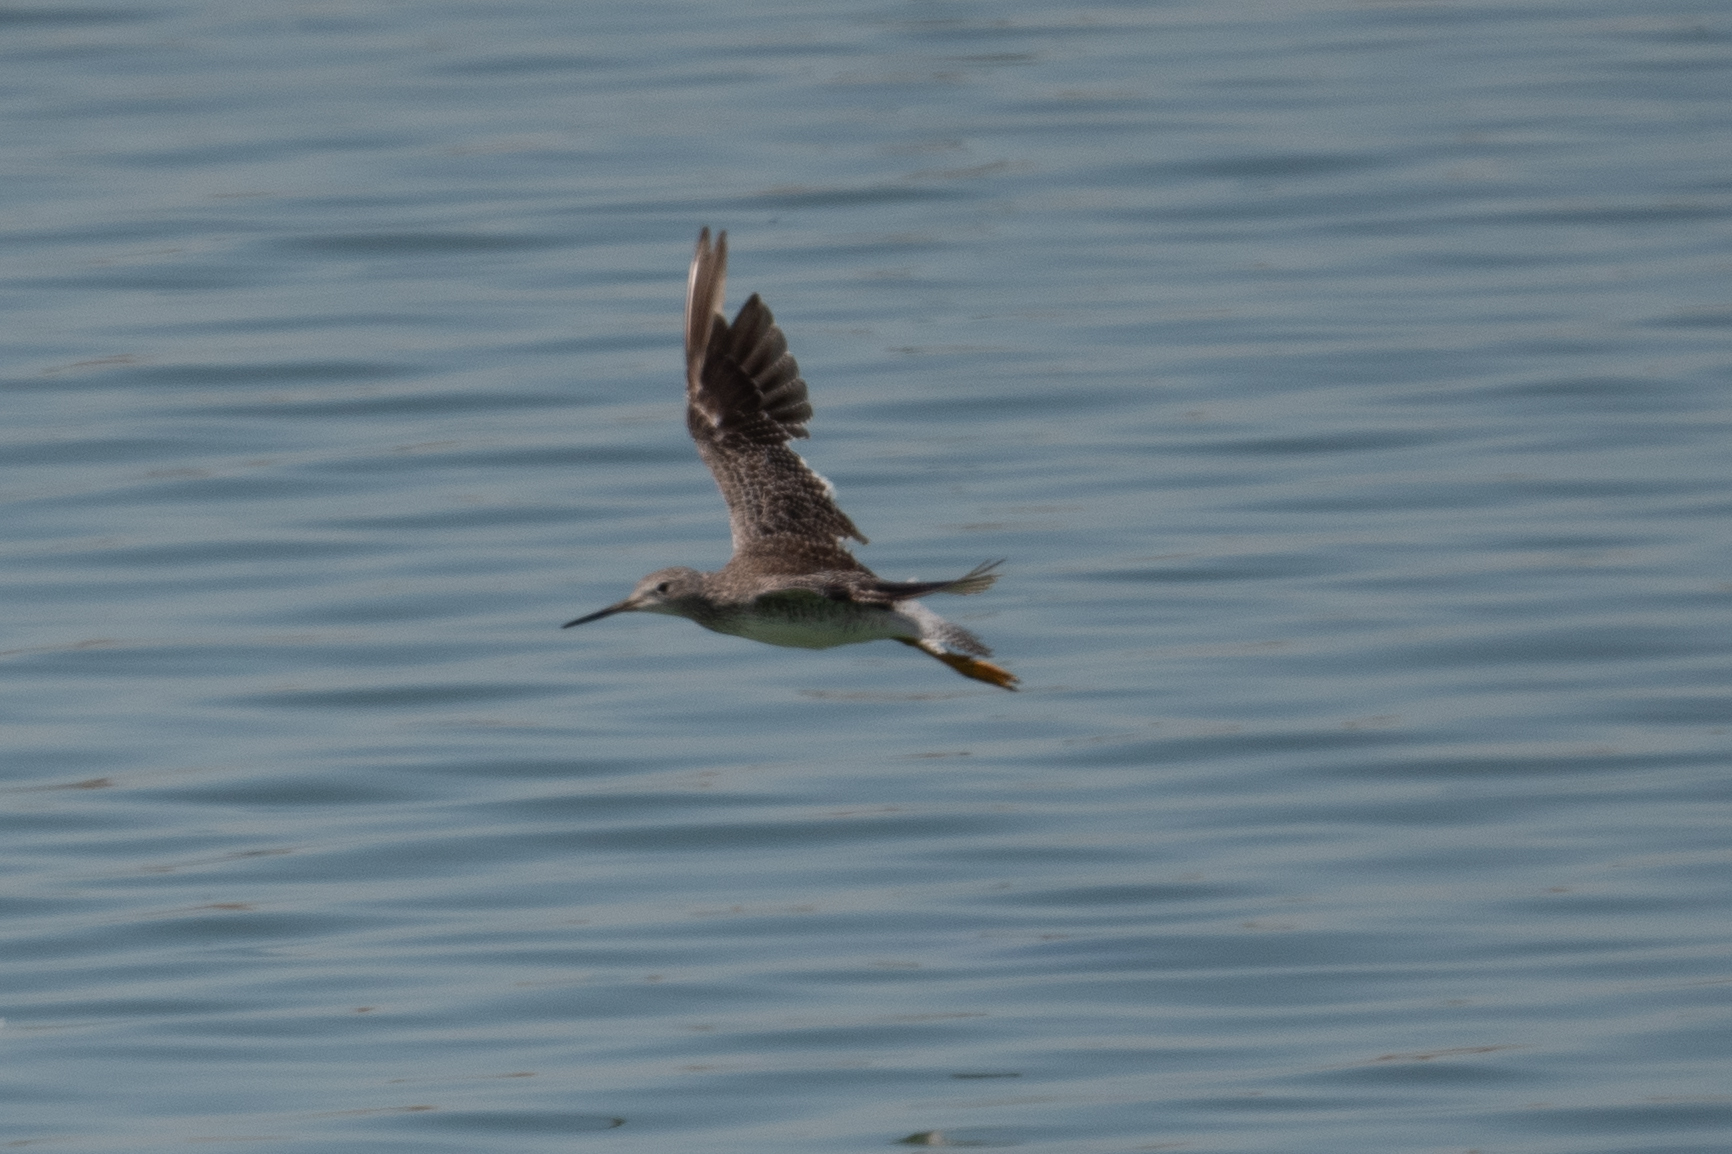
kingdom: Animalia
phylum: Chordata
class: Aves
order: Charadriiformes
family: Scolopacidae
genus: Tringa
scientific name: Tringa melanoleuca
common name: Greater yellowlegs
